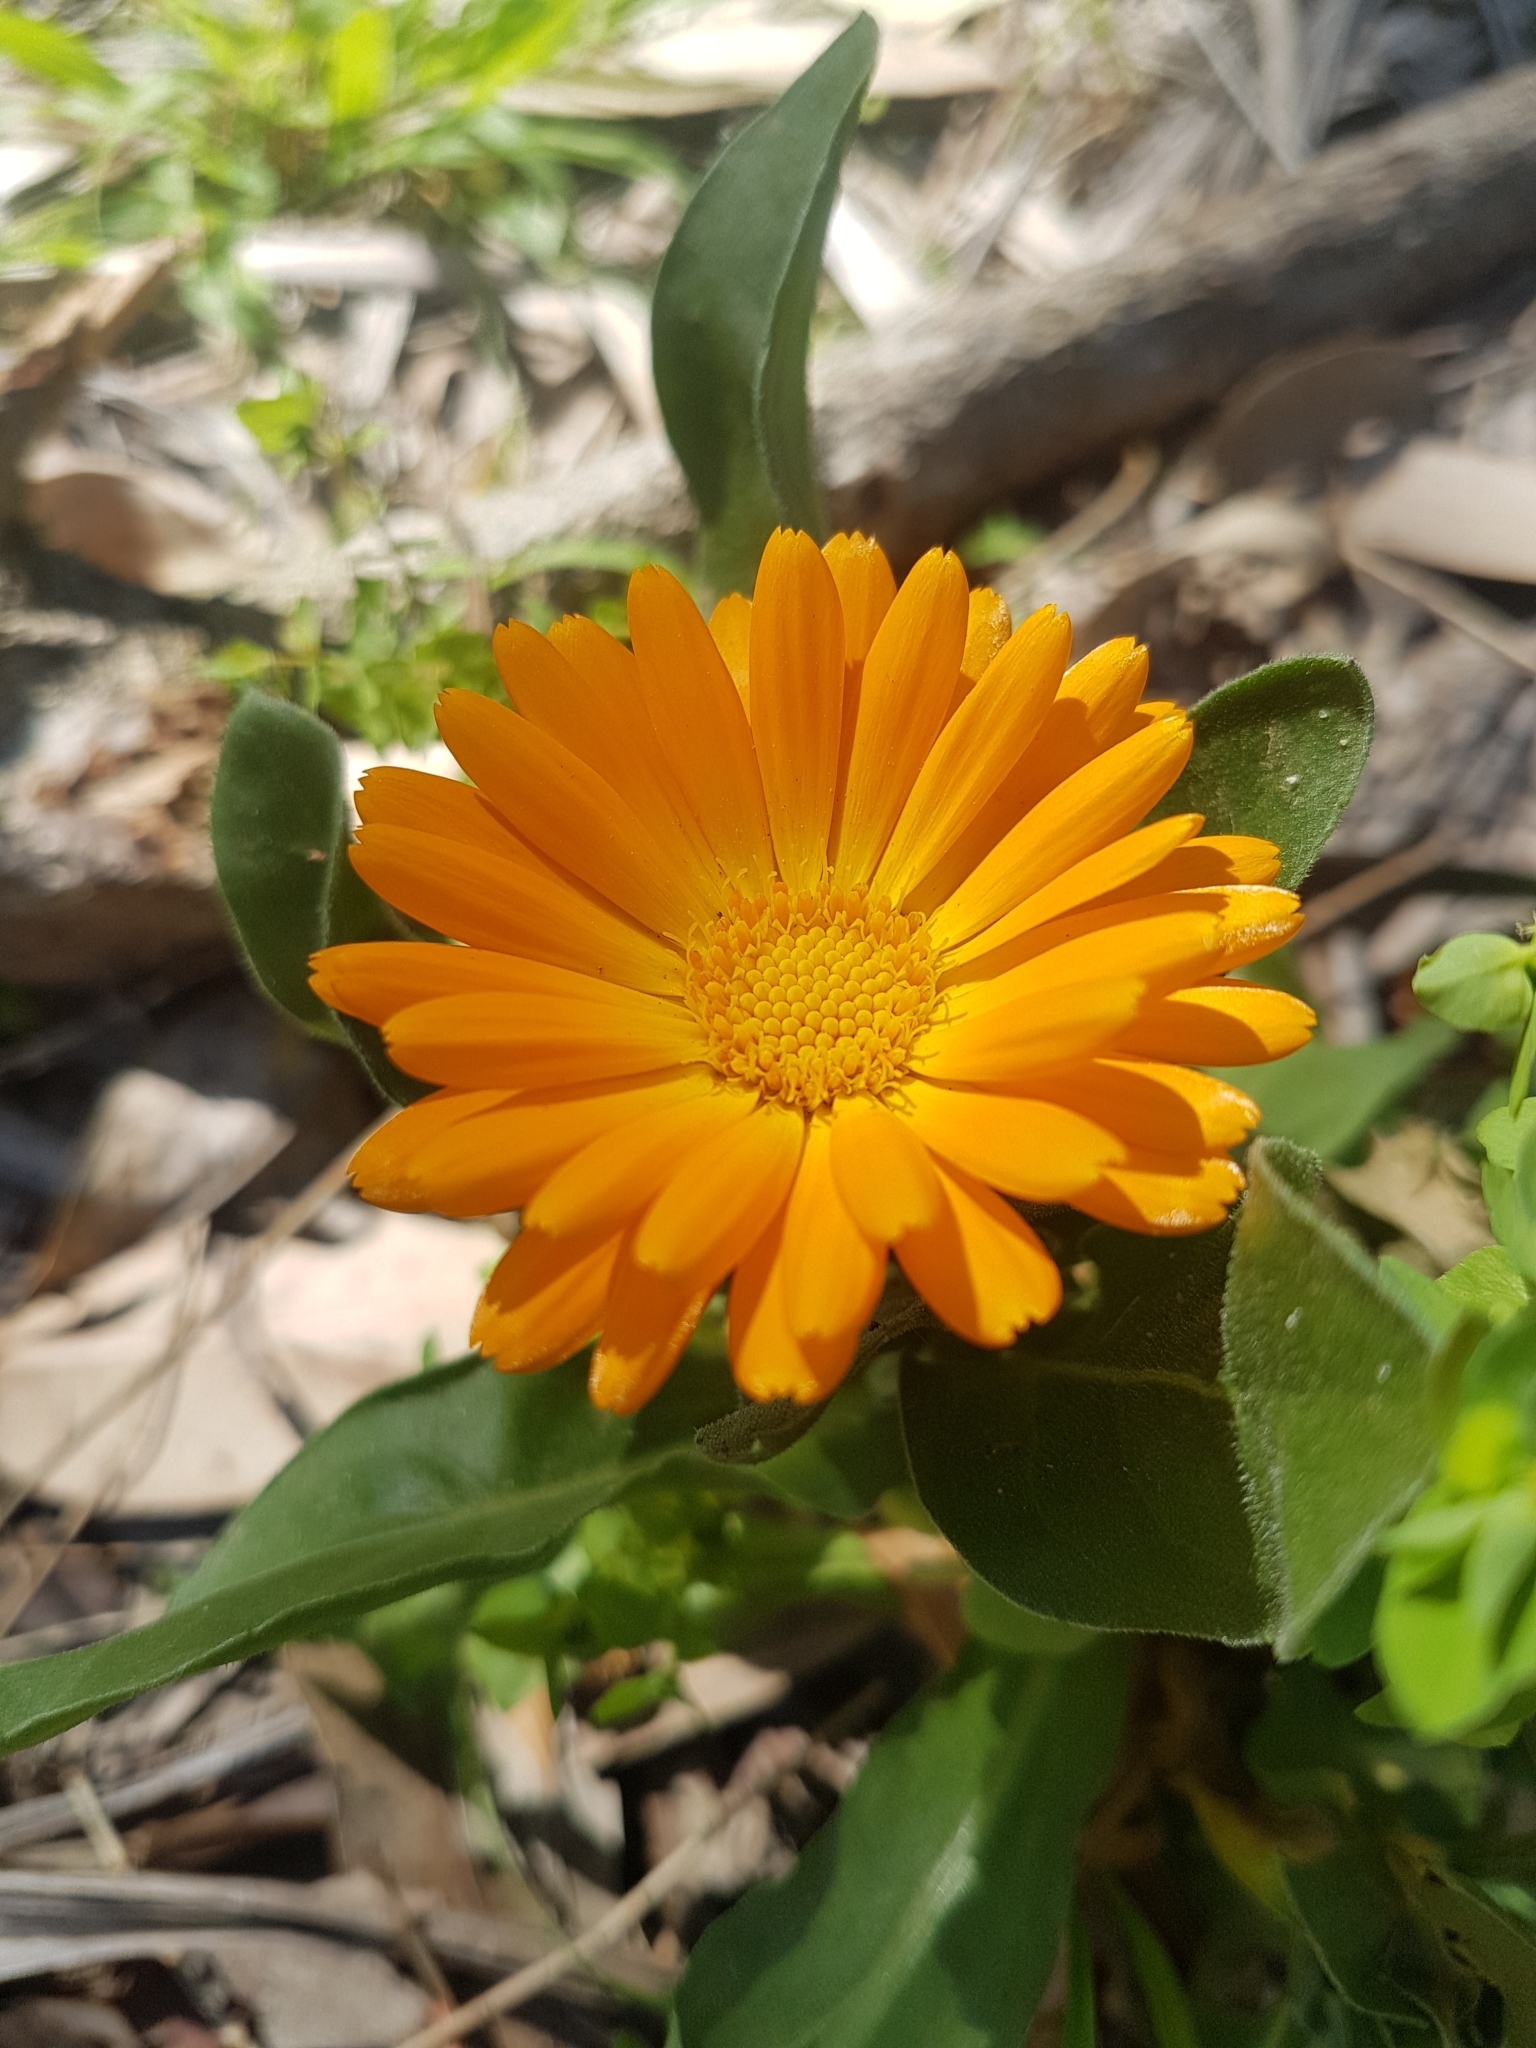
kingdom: Plantae
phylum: Tracheophyta
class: Magnoliopsida
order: Asterales
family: Asteraceae
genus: Calendula
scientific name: Calendula officinalis
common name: Pot marigold
